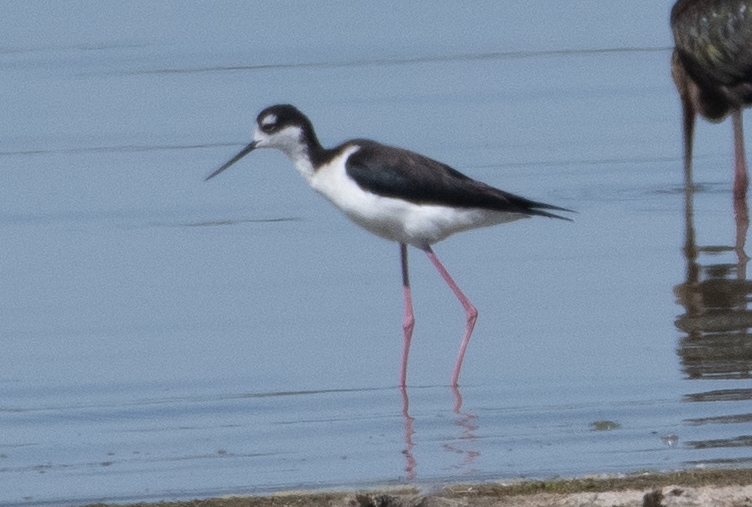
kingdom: Animalia
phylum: Chordata
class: Aves
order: Charadriiformes
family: Recurvirostridae
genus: Himantopus
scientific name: Himantopus mexicanus
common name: Black-necked stilt
